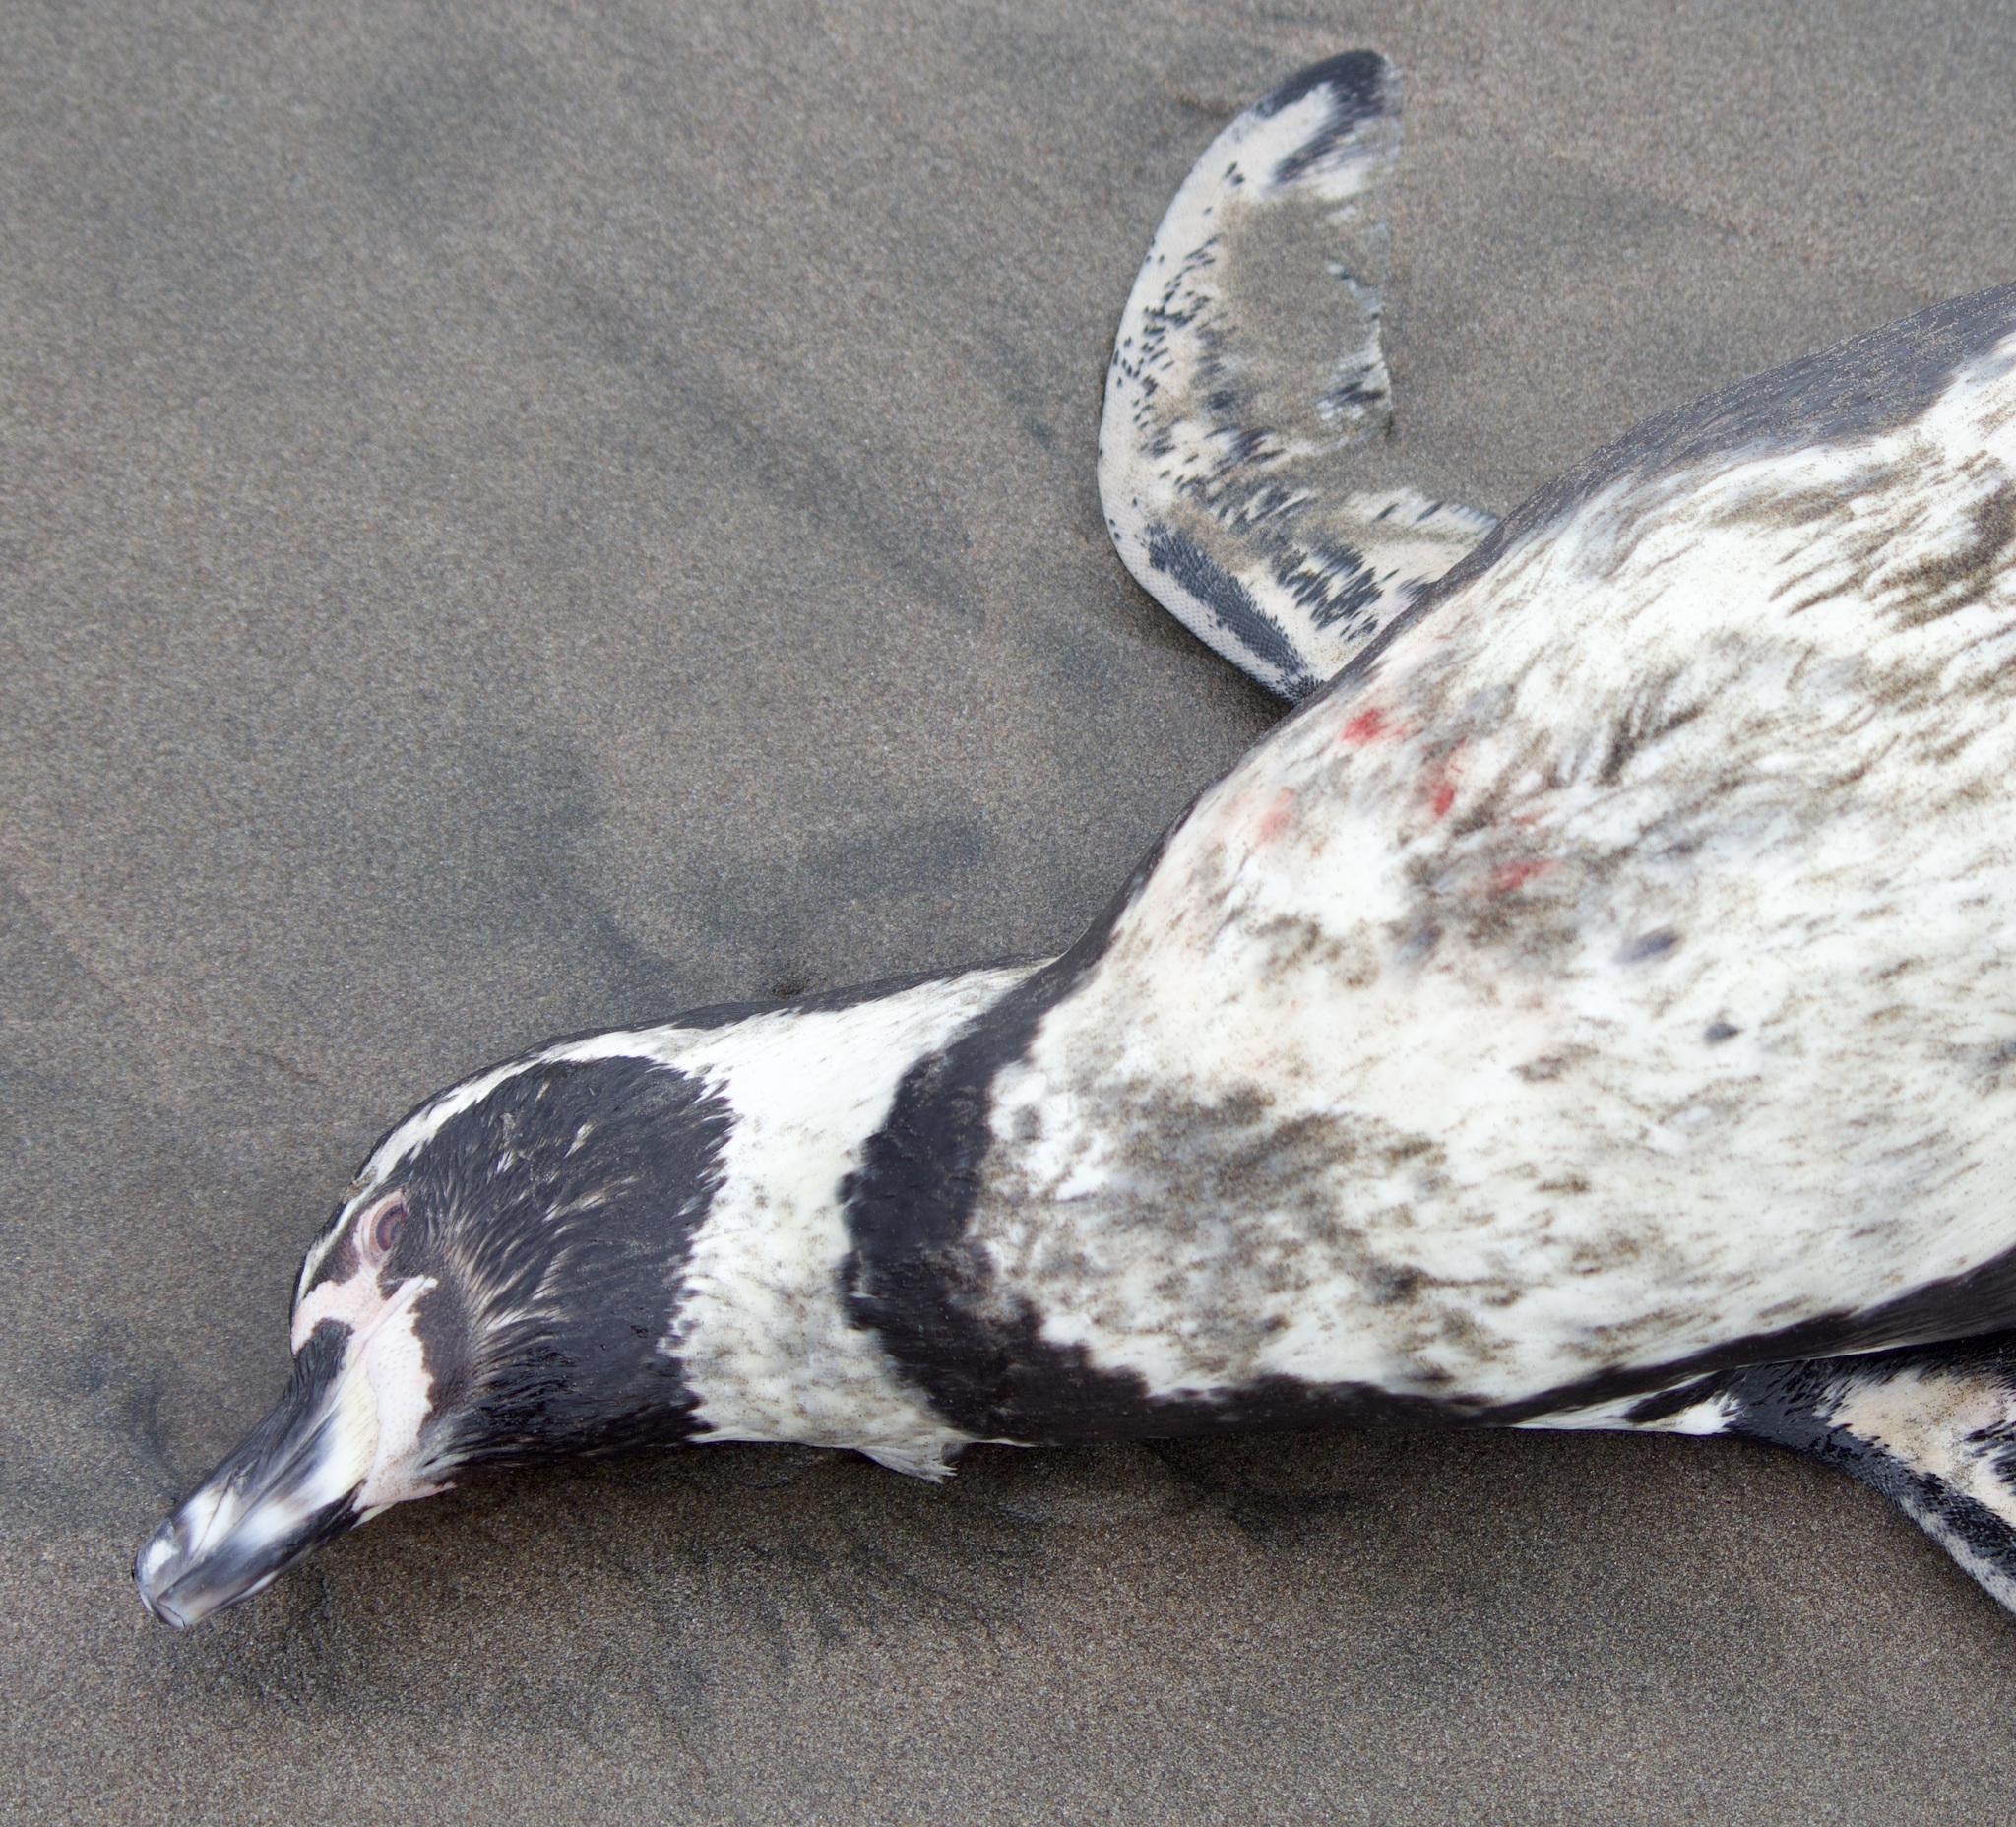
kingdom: Animalia
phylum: Chordata
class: Aves
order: Sphenisciformes
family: Spheniscidae
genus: Spheniscus
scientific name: Spheniscus humboldti
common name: Humboldt penguin
